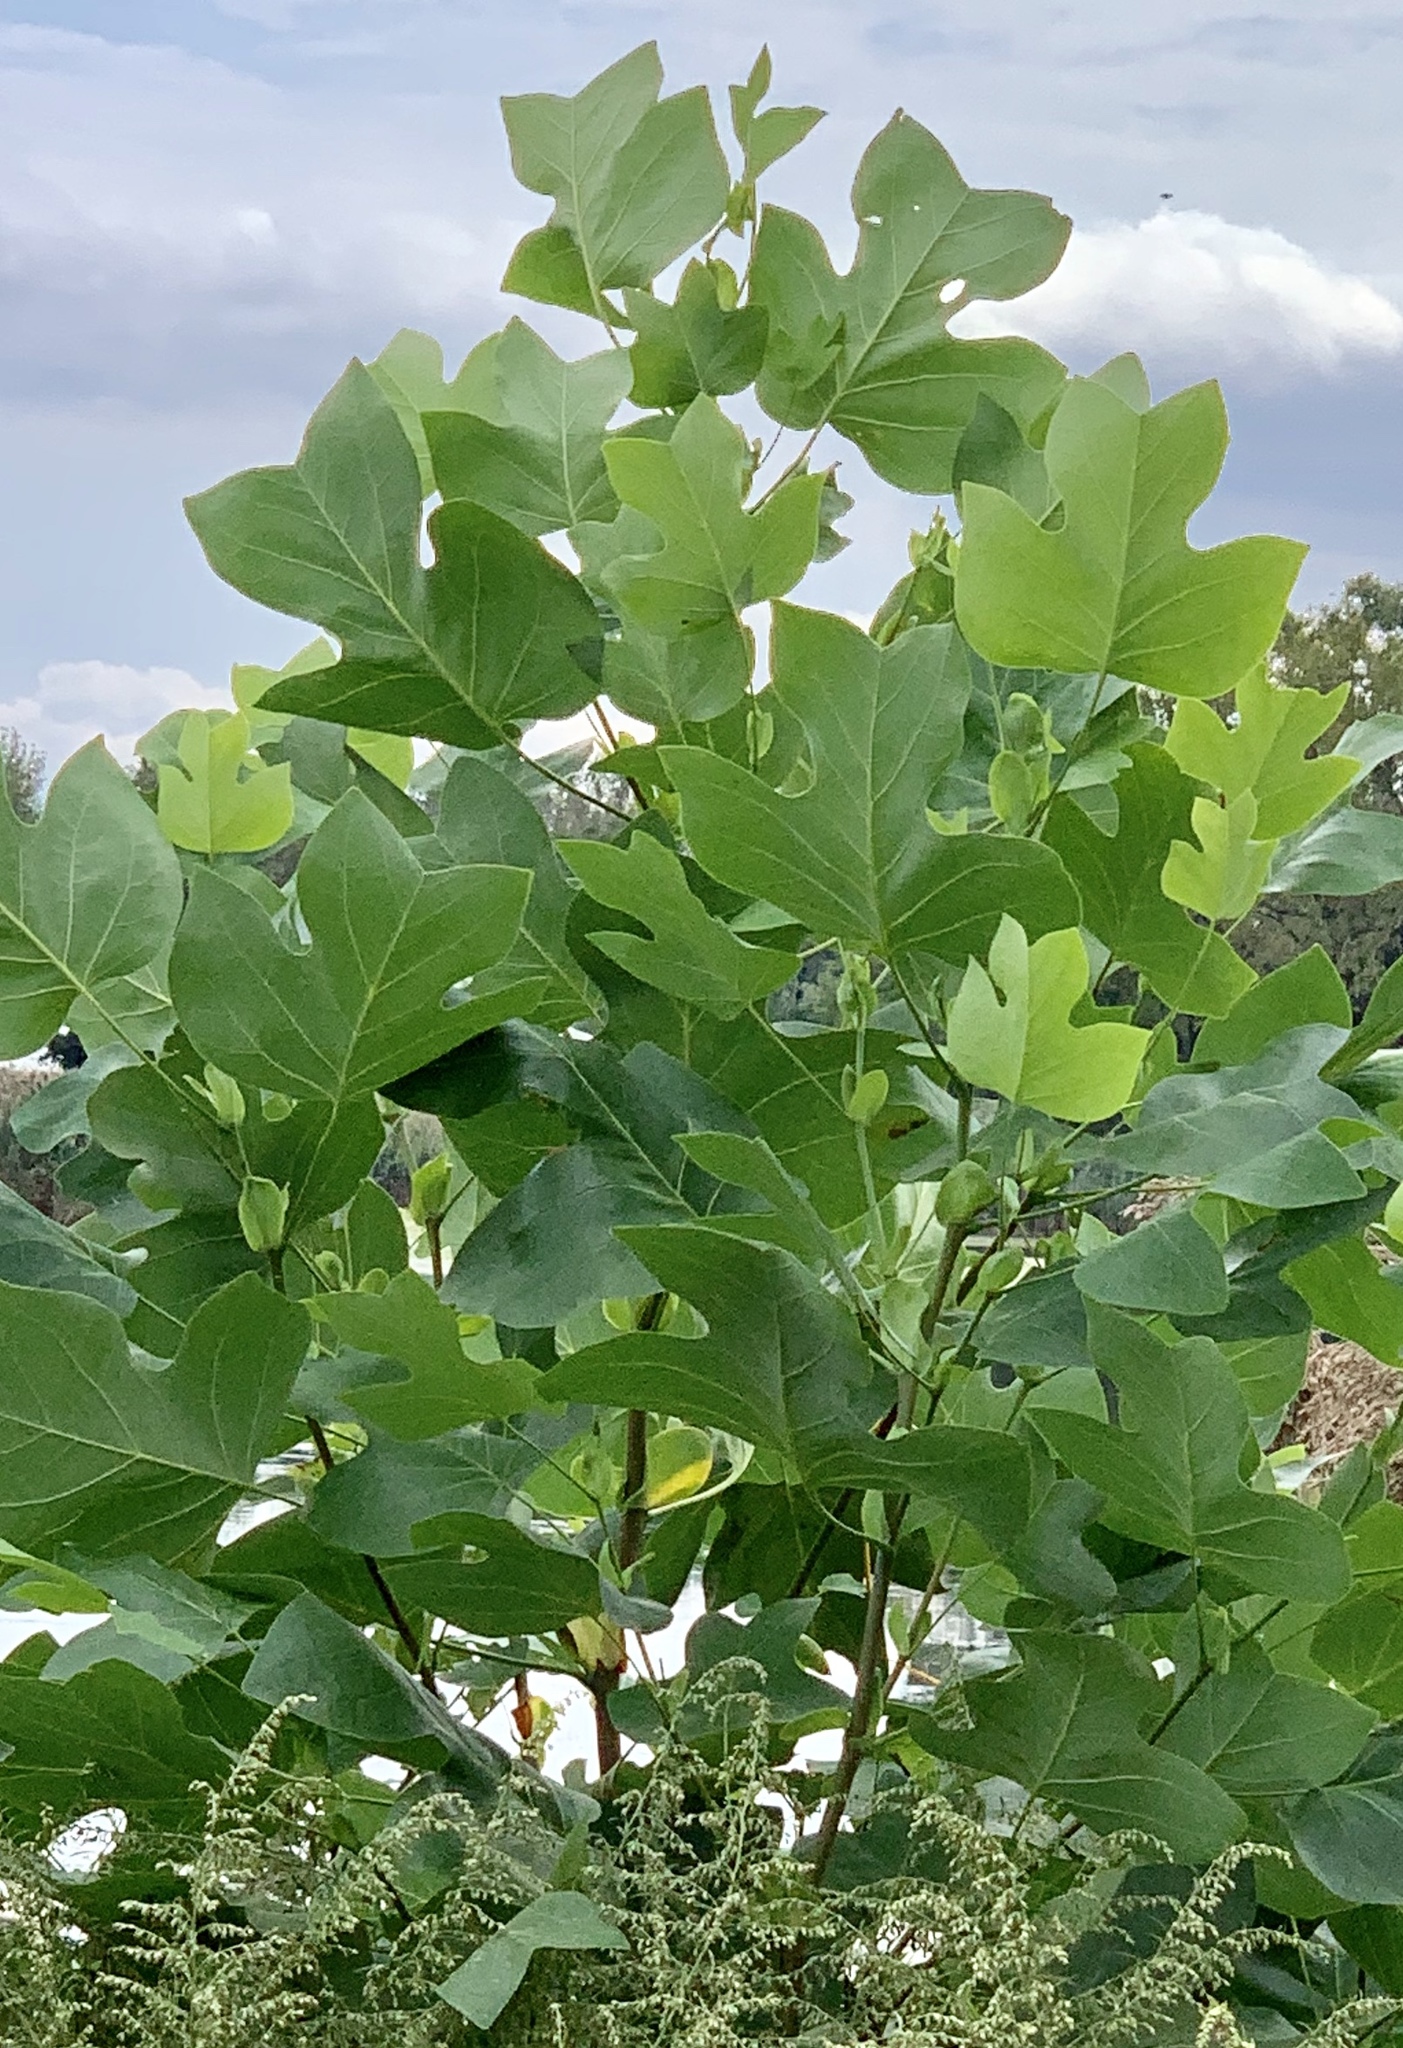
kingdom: Plantae
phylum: Tracheophyta
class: Magnoliopsida
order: Magnoliales
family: Magnoliaceae
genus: Liriodendron
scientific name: Liriodendron tulipifera
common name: Tulip tree
